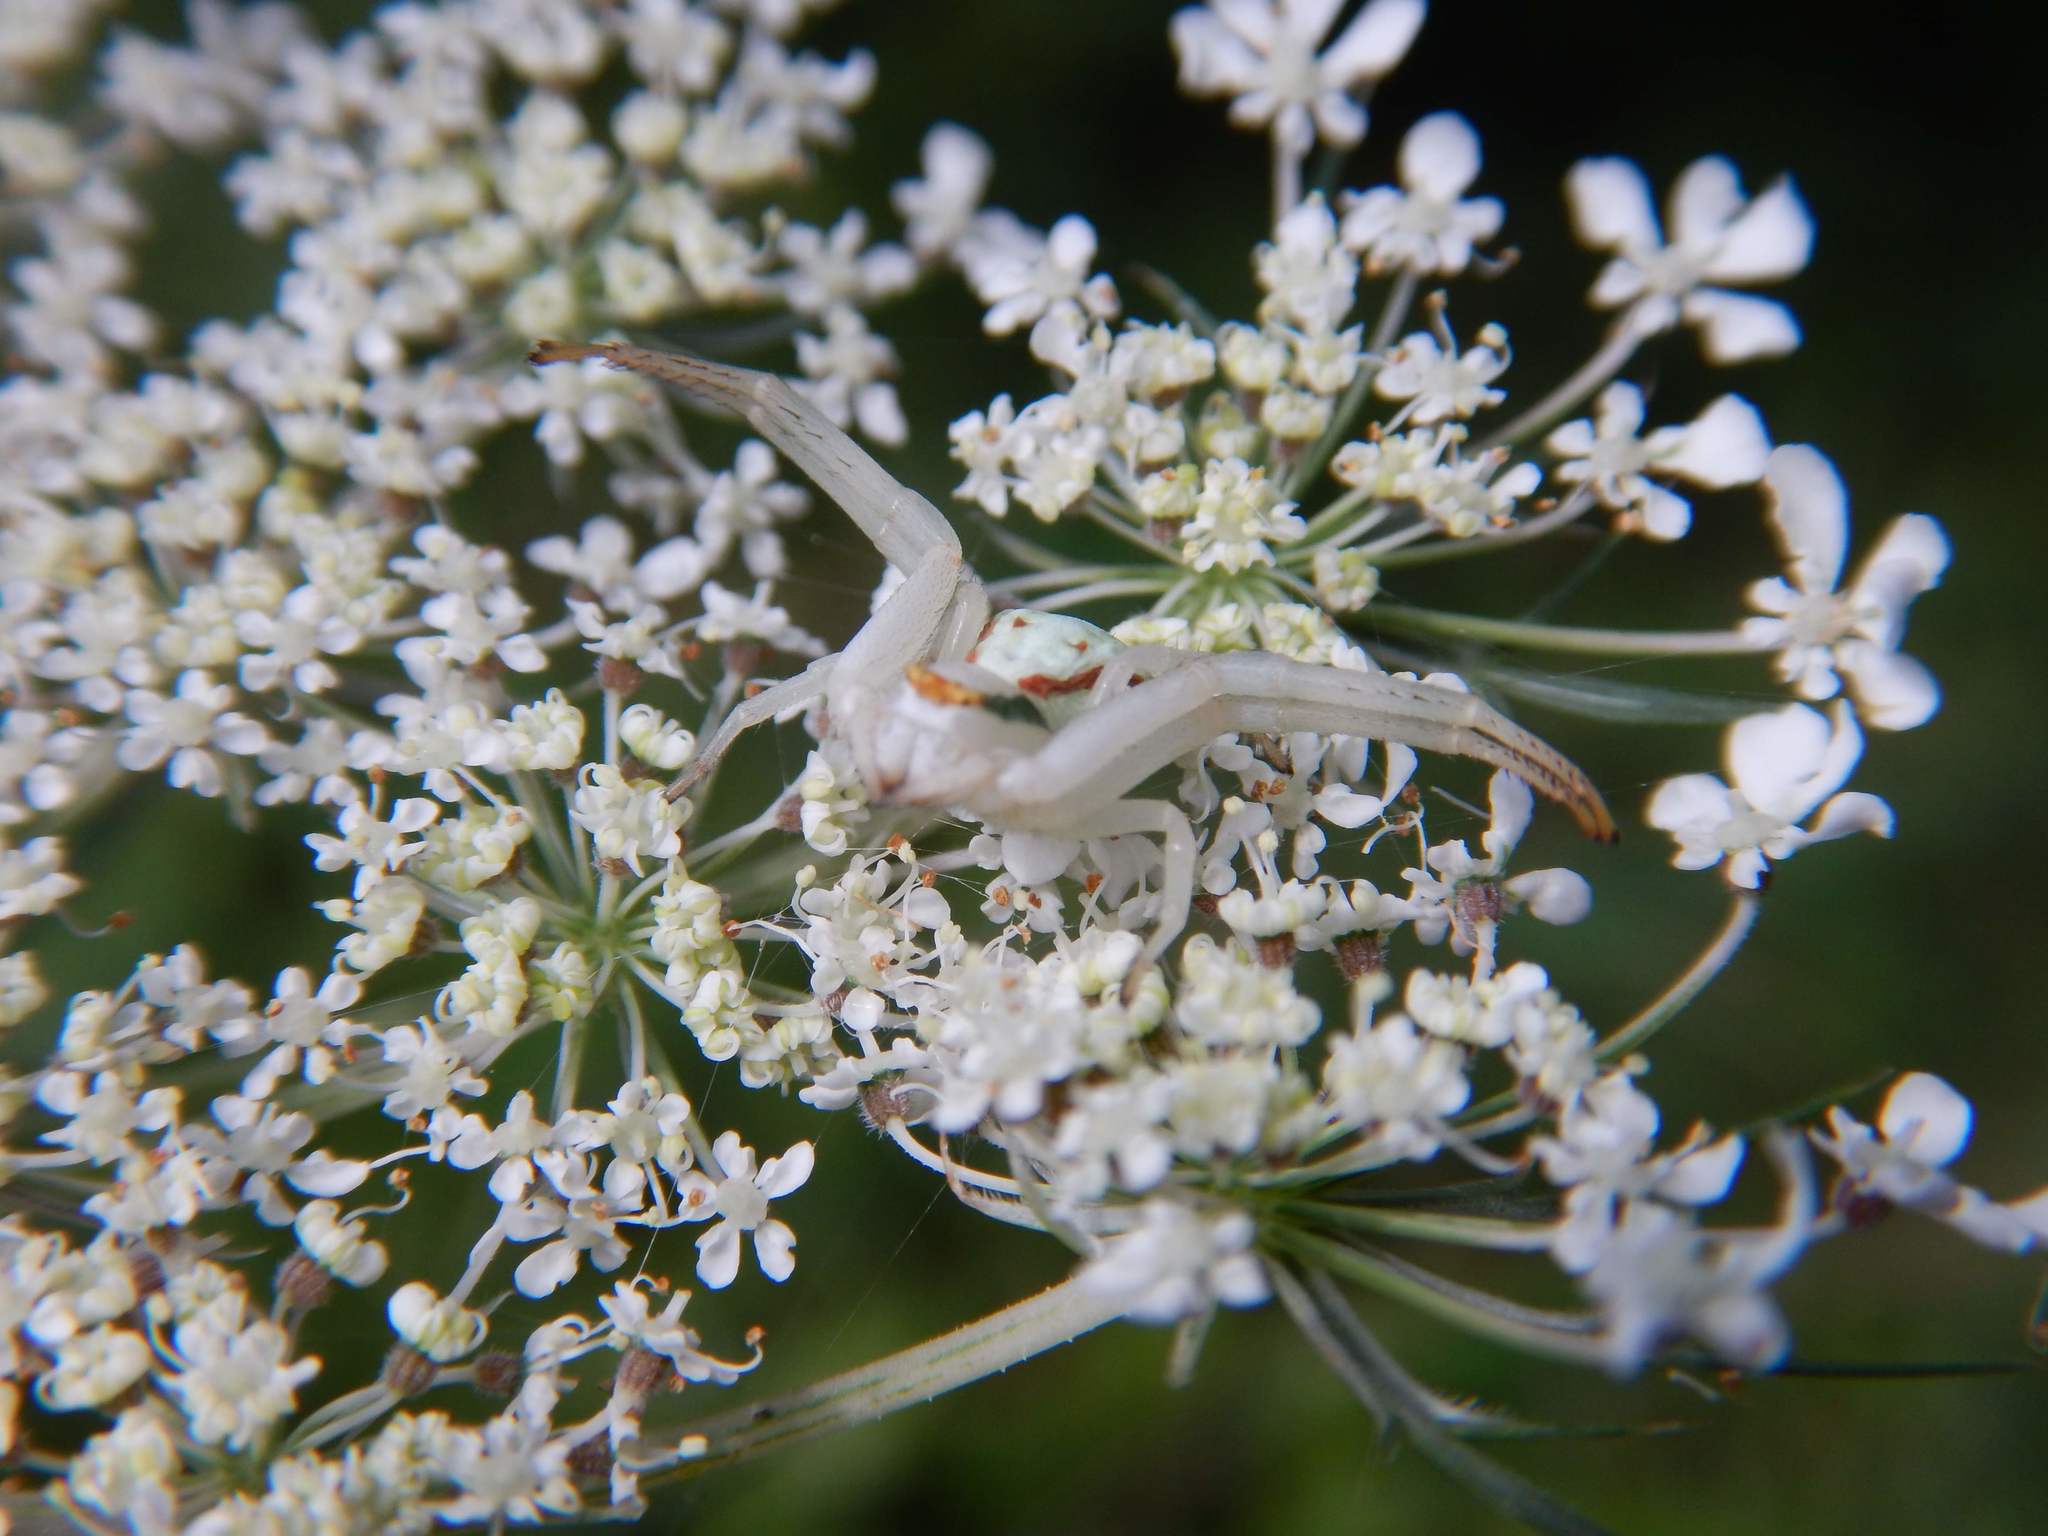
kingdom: Animalia
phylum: Arthropoda
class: Arachnida
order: Araneae
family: Thomisidae
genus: Misumena
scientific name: Misumena vatia
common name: Goldenrod crab spider
